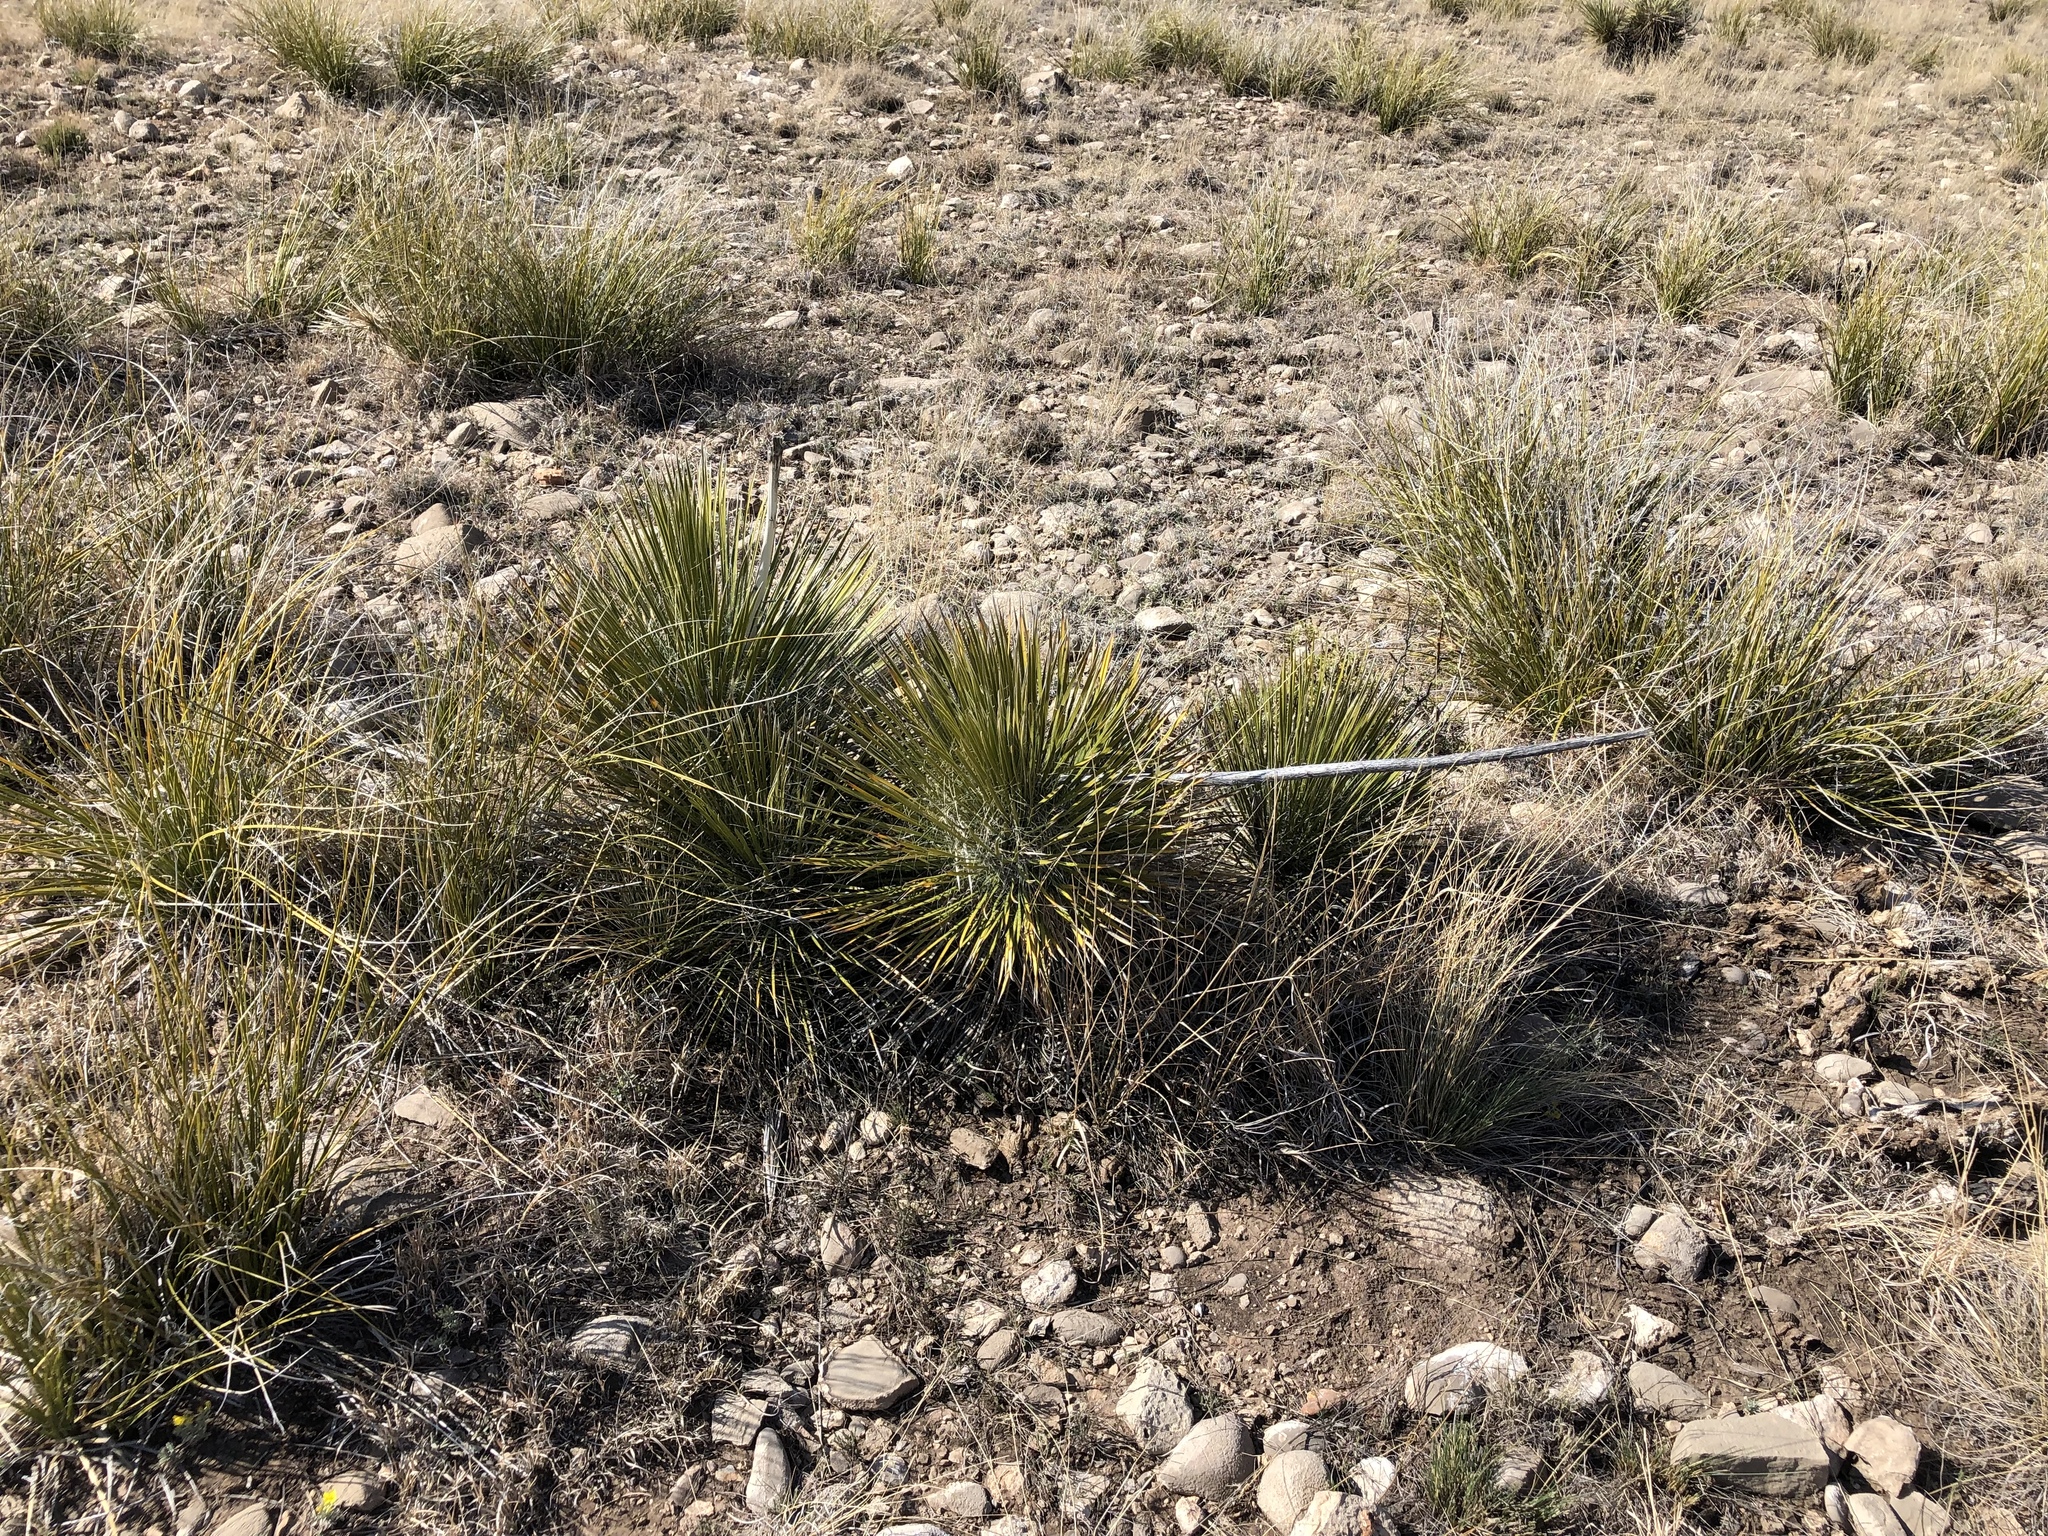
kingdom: Plantae
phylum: Tracheophyta
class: Liliopsida
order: Asparagales
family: Asparagaceae
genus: Yucca
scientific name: Yucca elata
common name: Palmella
